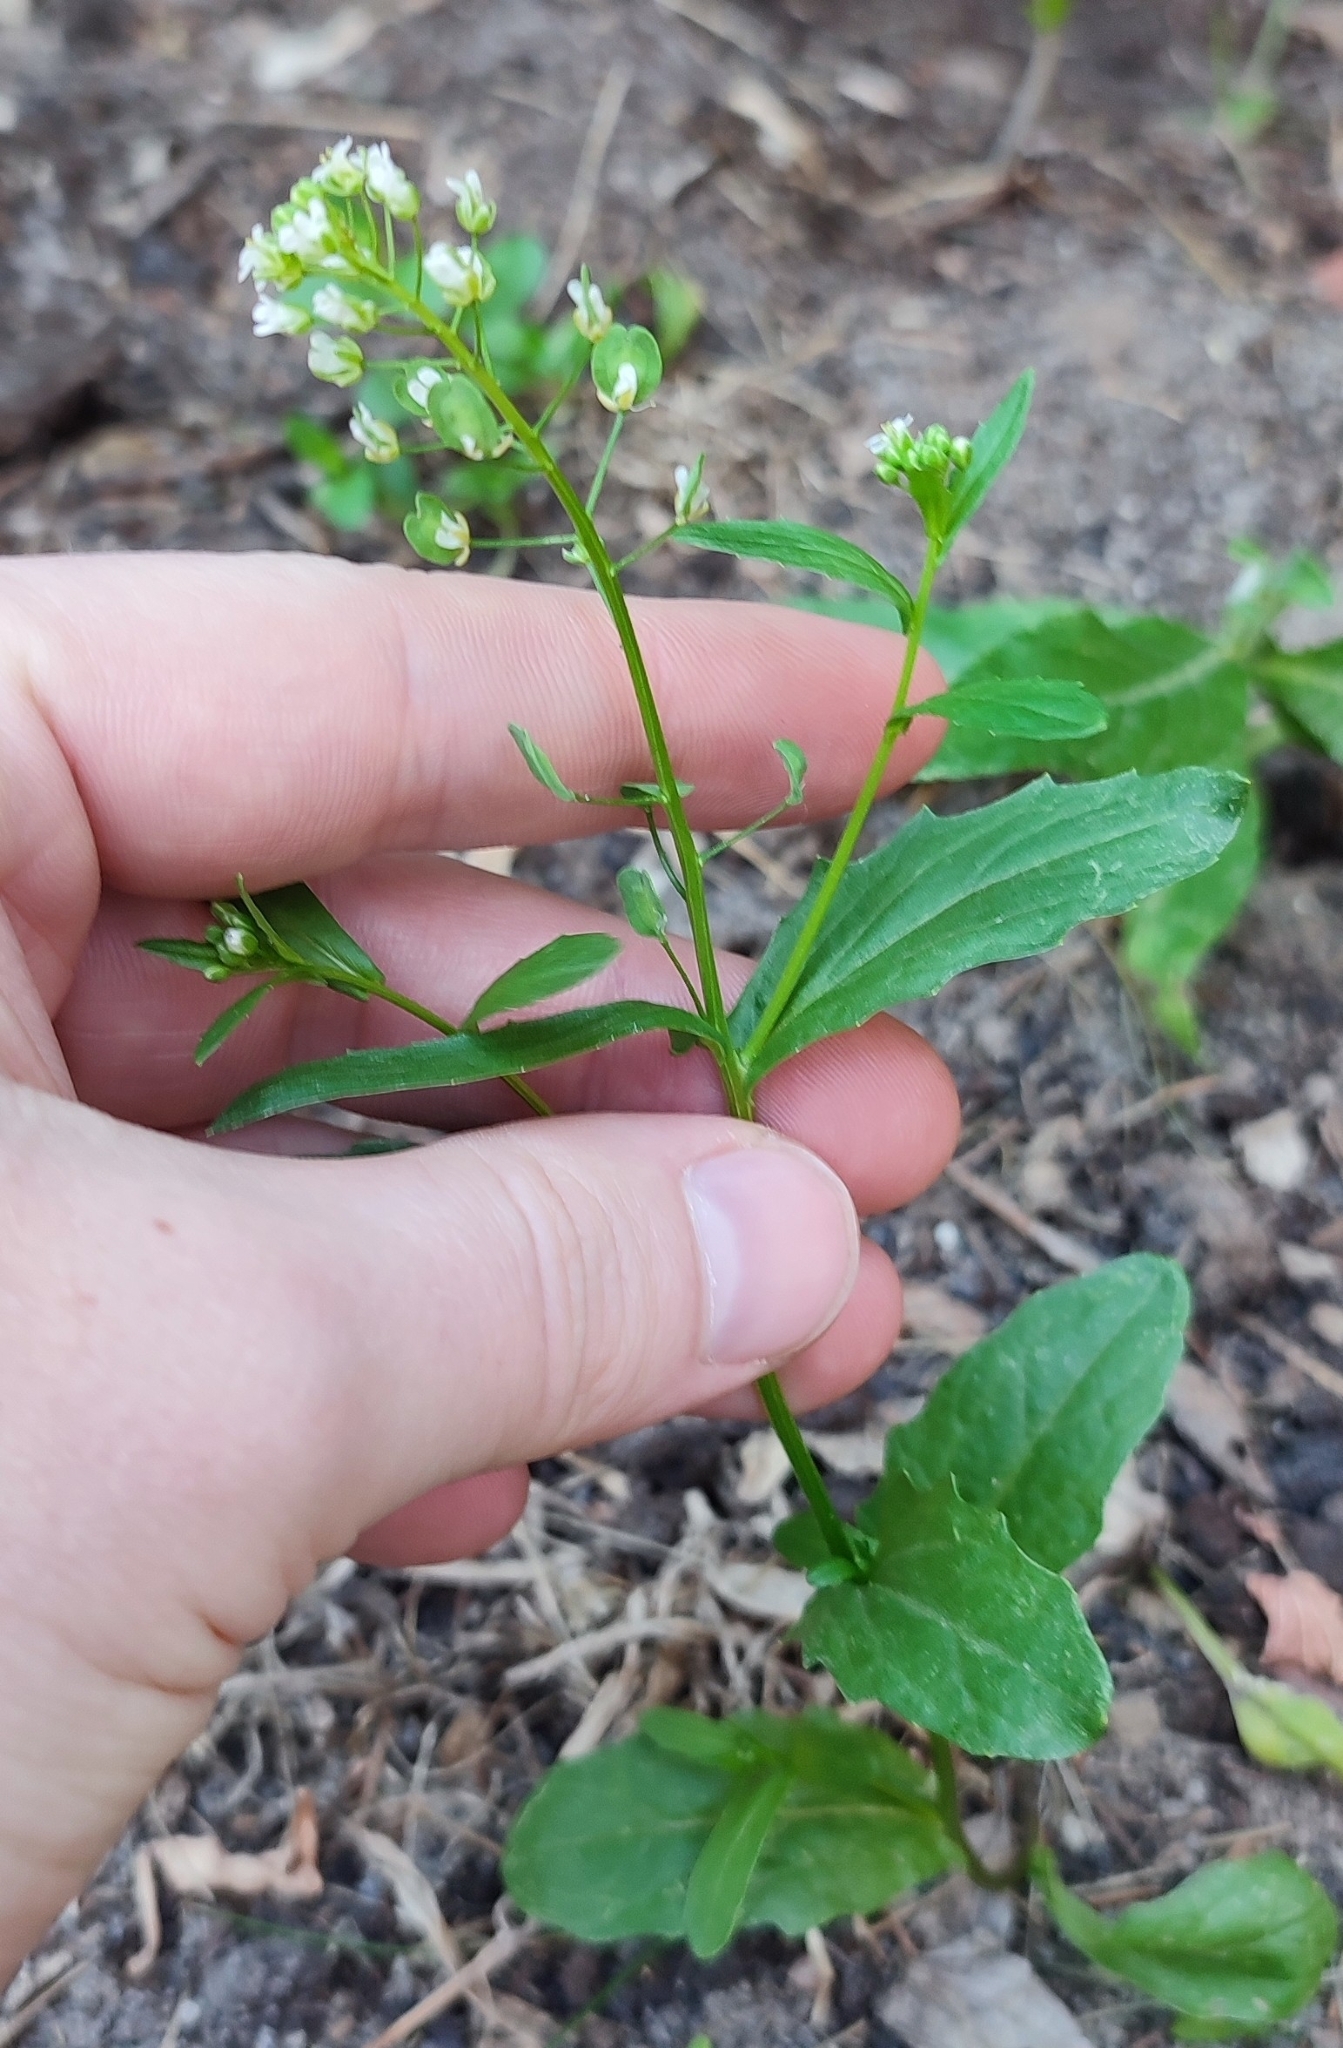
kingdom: Plantae
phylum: Tracheophyta
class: Magnoliopsida
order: Brassicales
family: Brassicaceae
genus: Thlaspi
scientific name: Thlaspi arvense
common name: Field pennycress
